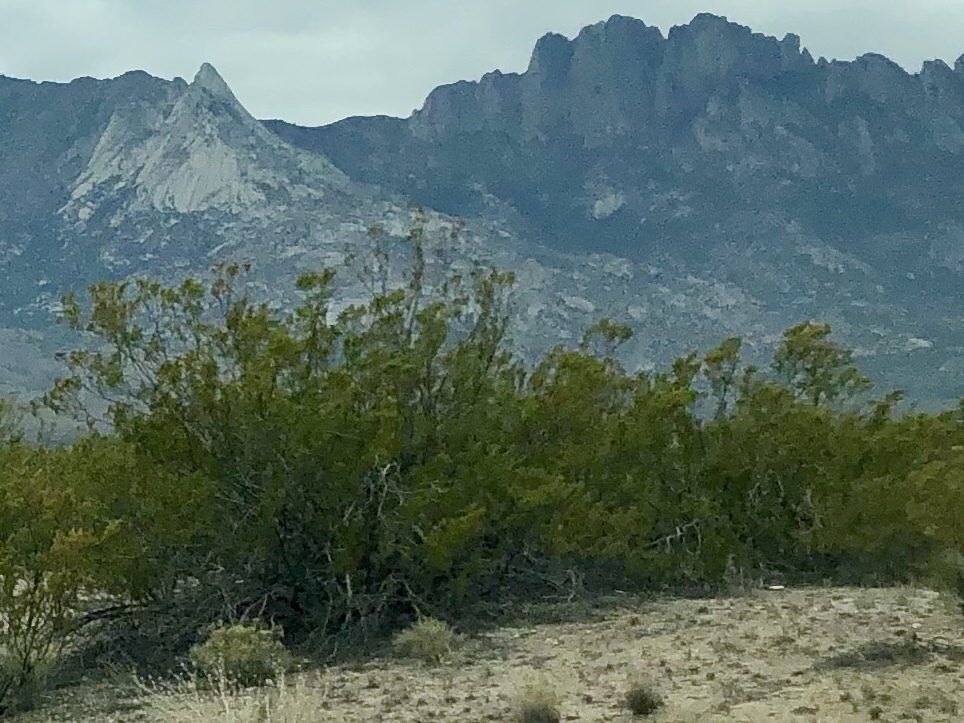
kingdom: Plantae
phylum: Tracheophyta
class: Magnoliopsida
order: Zygophyllales
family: Zygophyllaceae
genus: Larrea
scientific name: Larrea tridentata
